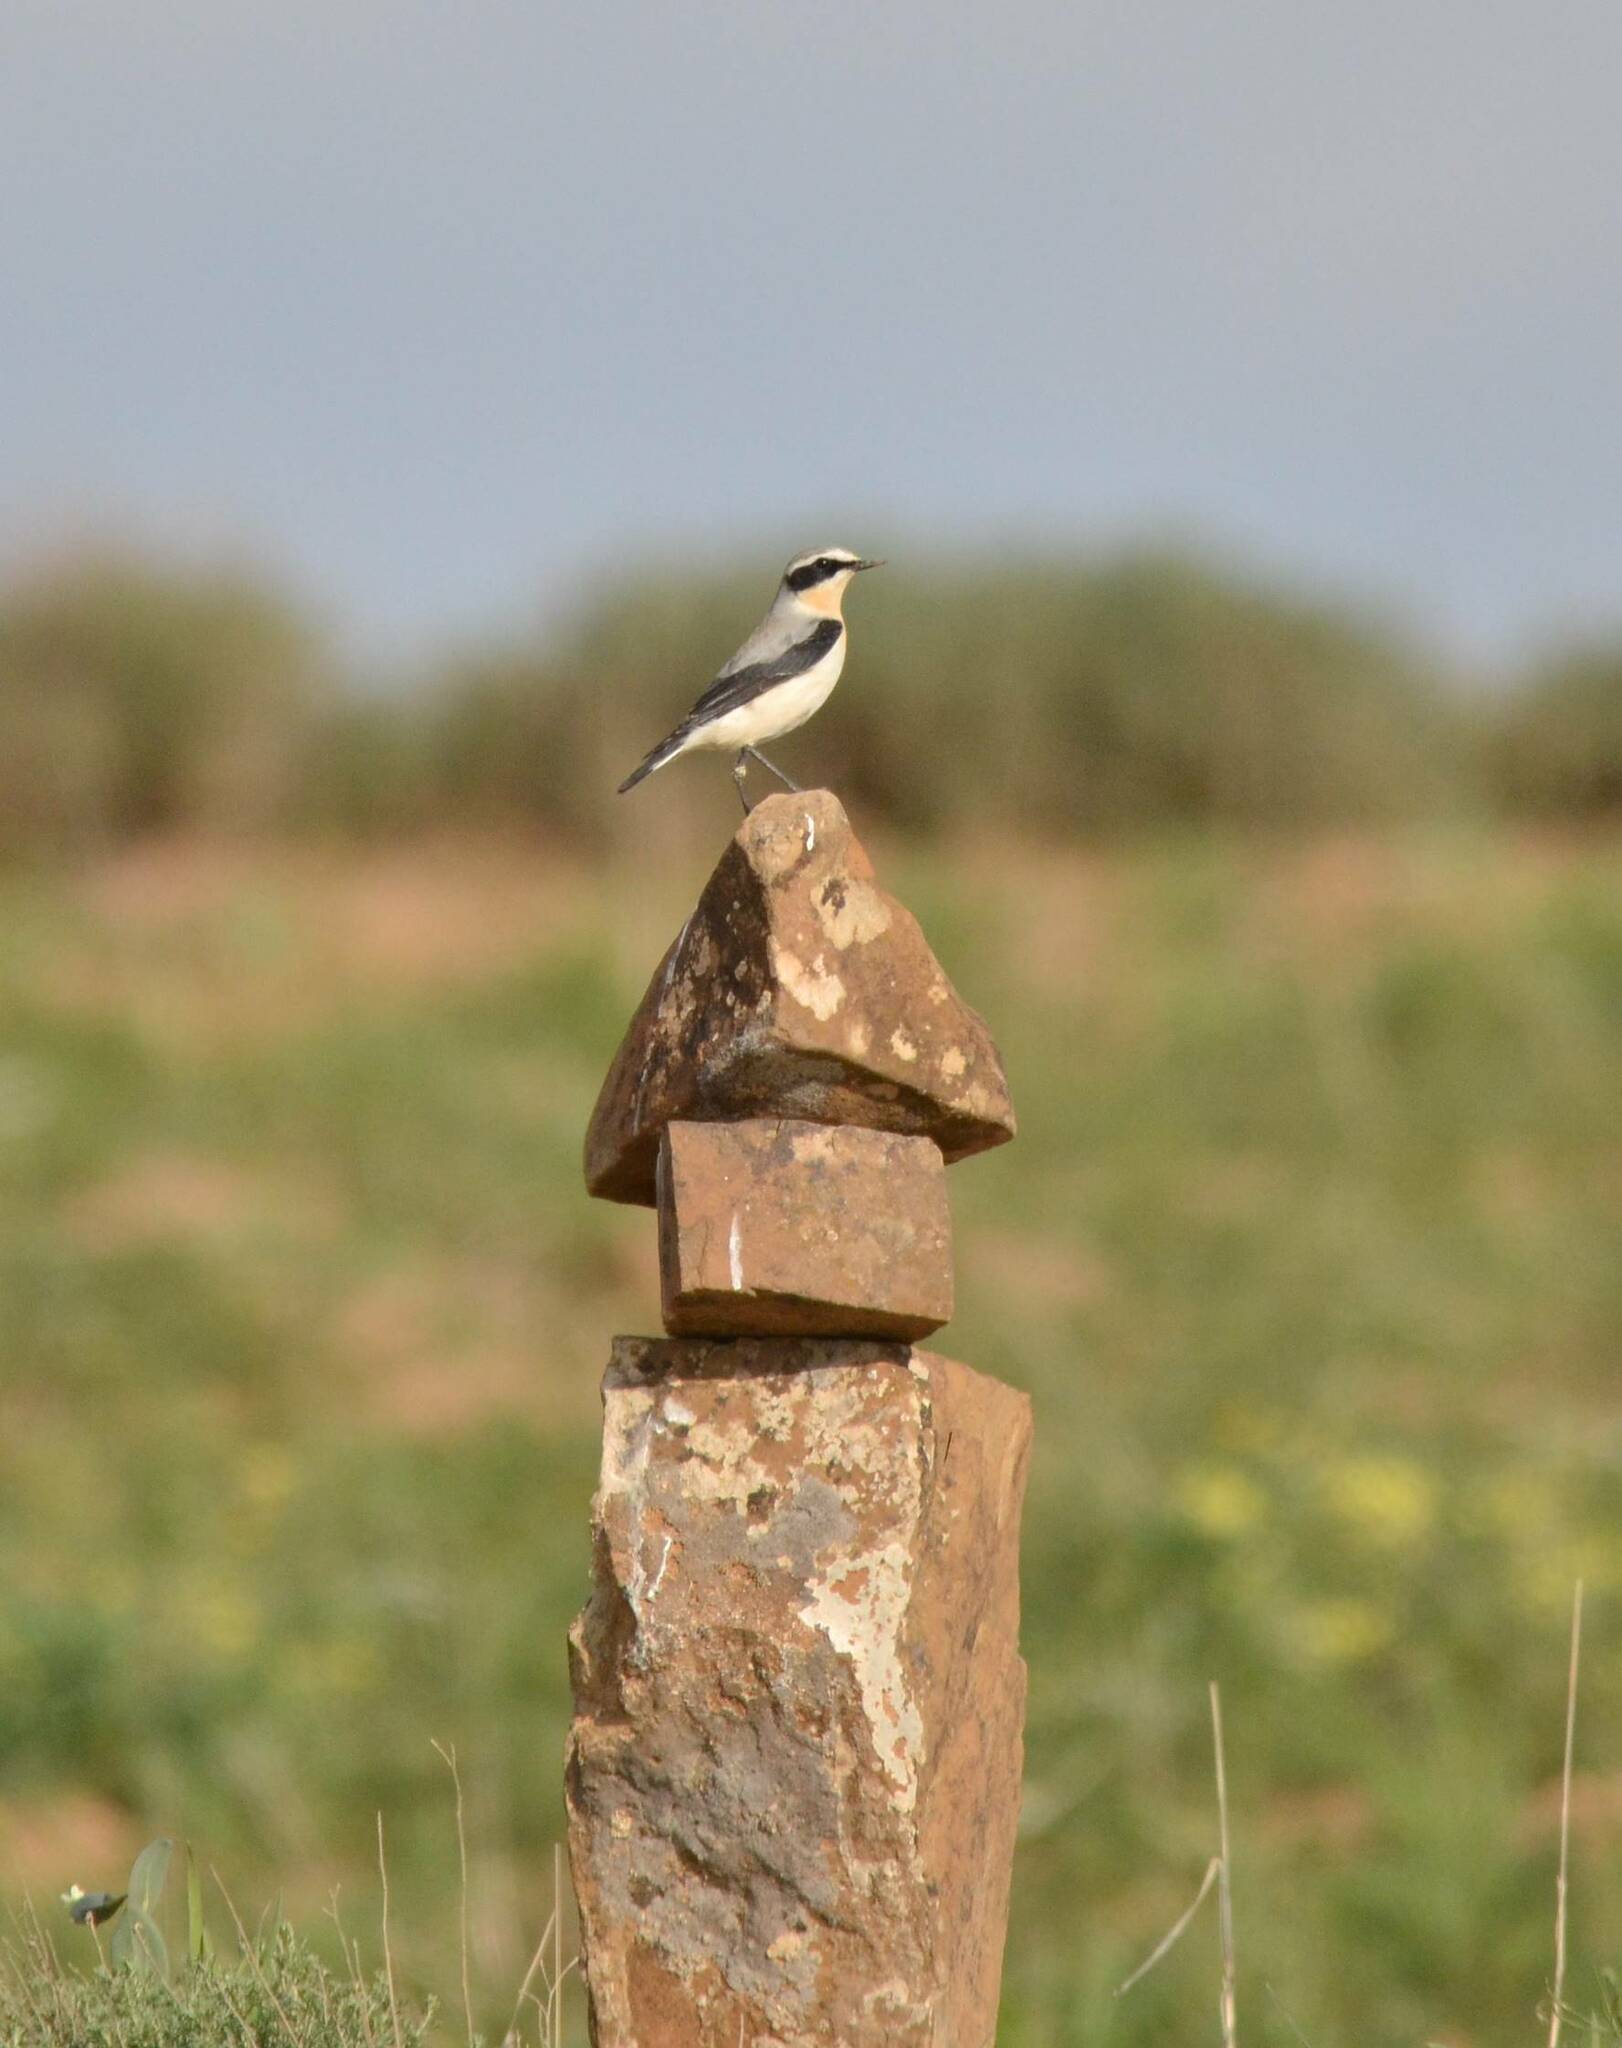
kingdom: Animalia
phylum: Chordata
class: Aves
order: Passeriformes
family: Muscicapidae
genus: Oenanthe
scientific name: Oenanthe oenanthe
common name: Northern wheatear
